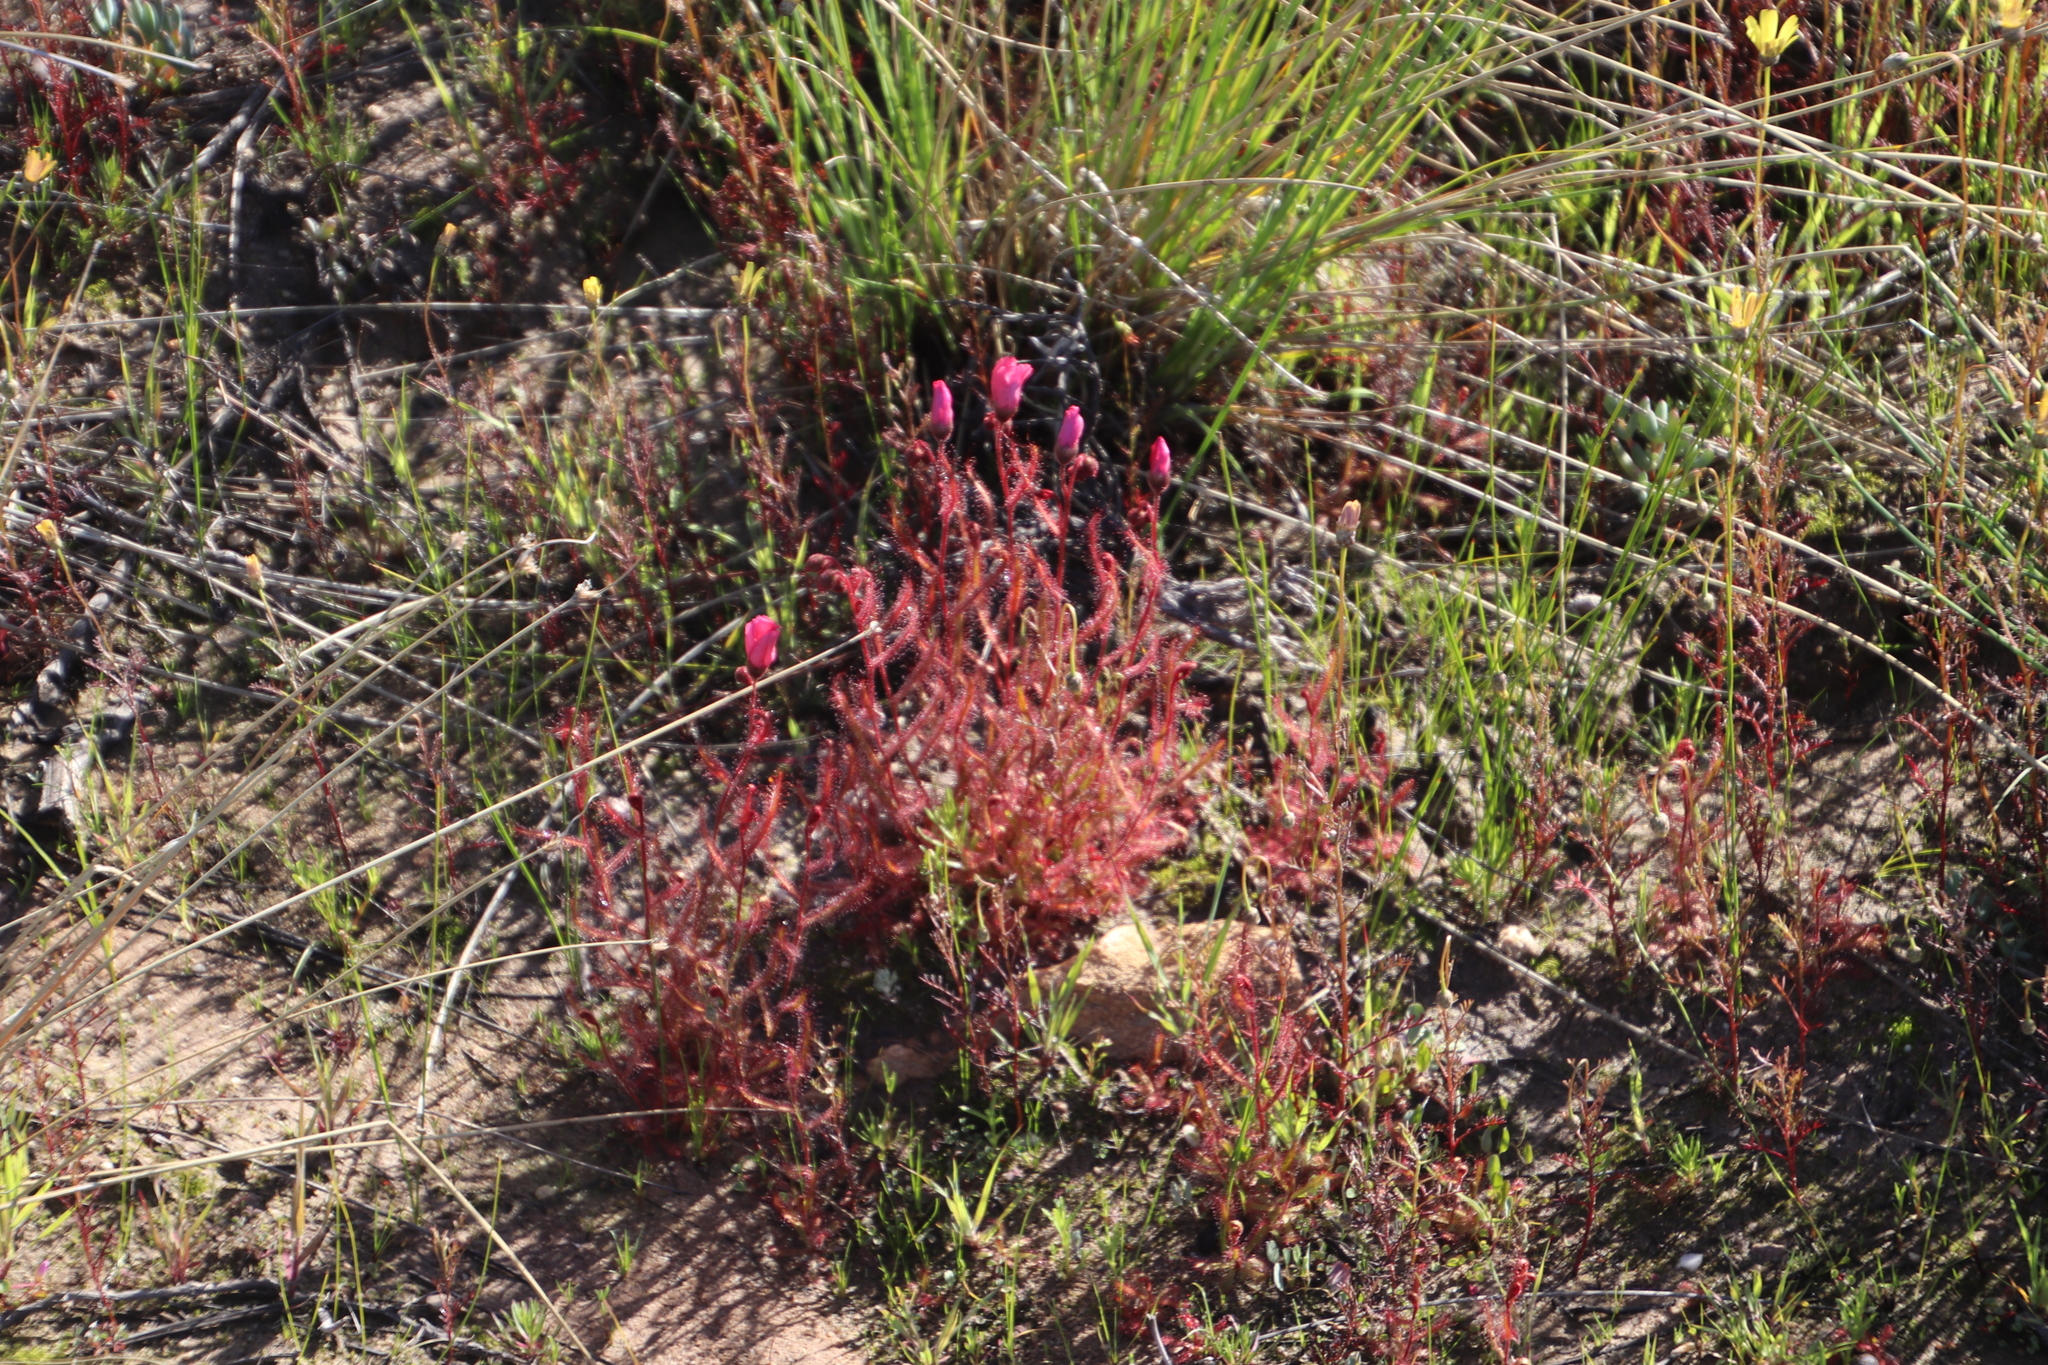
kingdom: Plantae
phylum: Tracheophyta
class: Magnoliopsida
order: Caryophyllales
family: Droseraceae
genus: Drosera
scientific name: Drosera cistiflora
